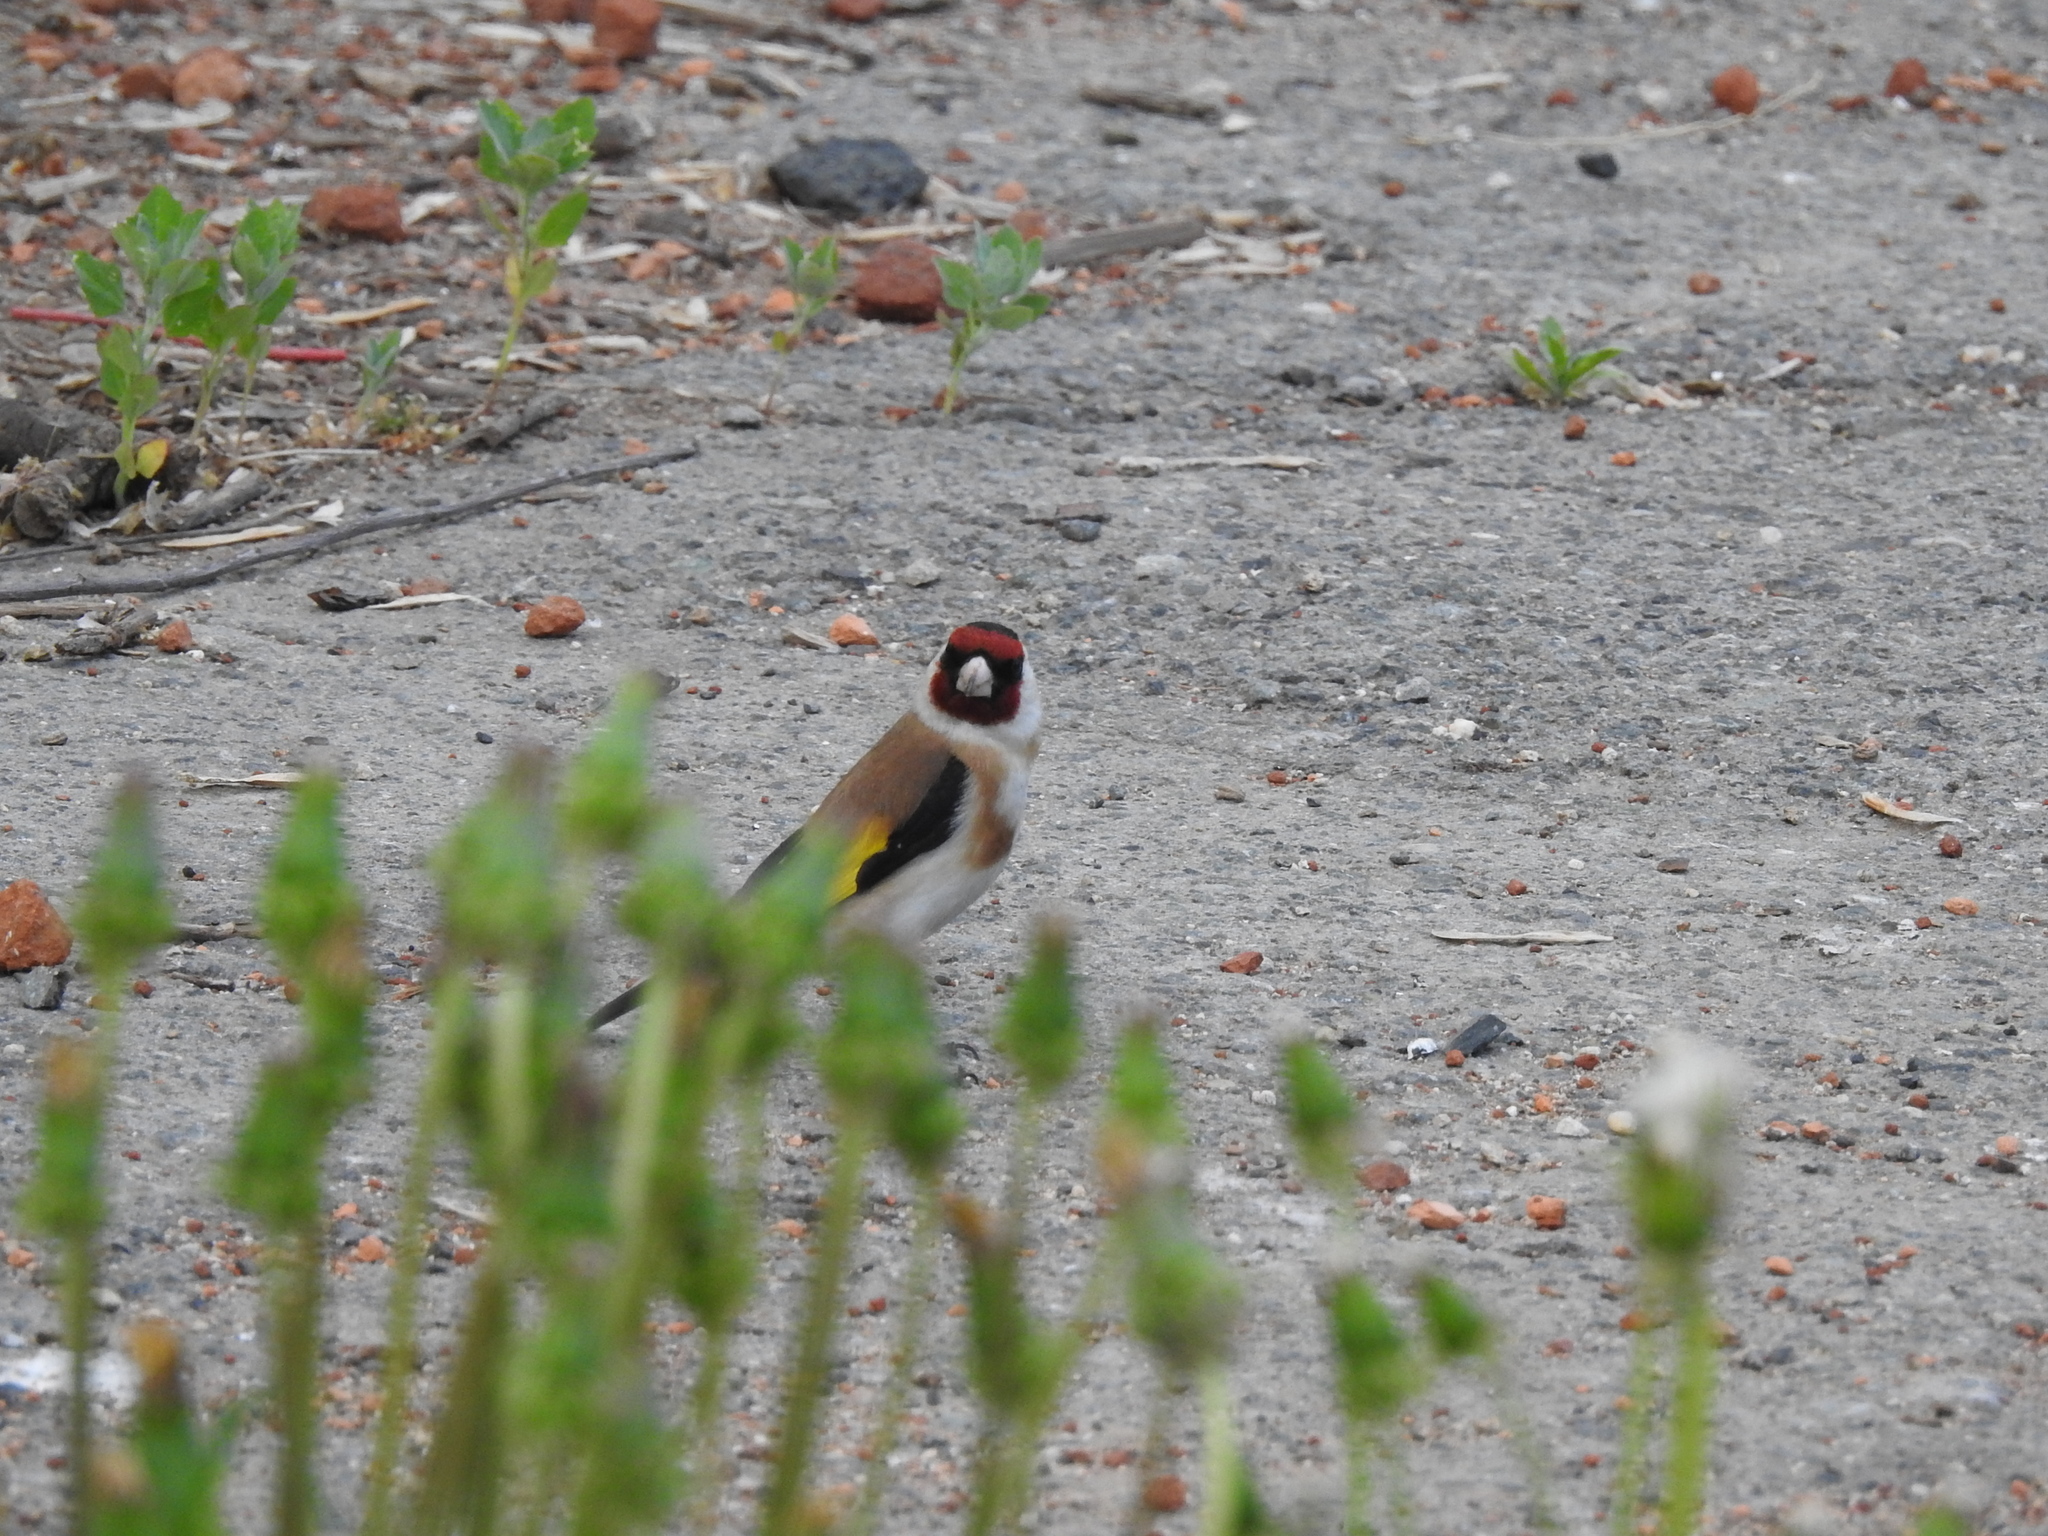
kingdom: Animalia
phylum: Chordata
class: Aves
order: Passeriformes
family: Fringillidae
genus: Carduelis
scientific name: Carduelis carduelis
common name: European goldfinch
